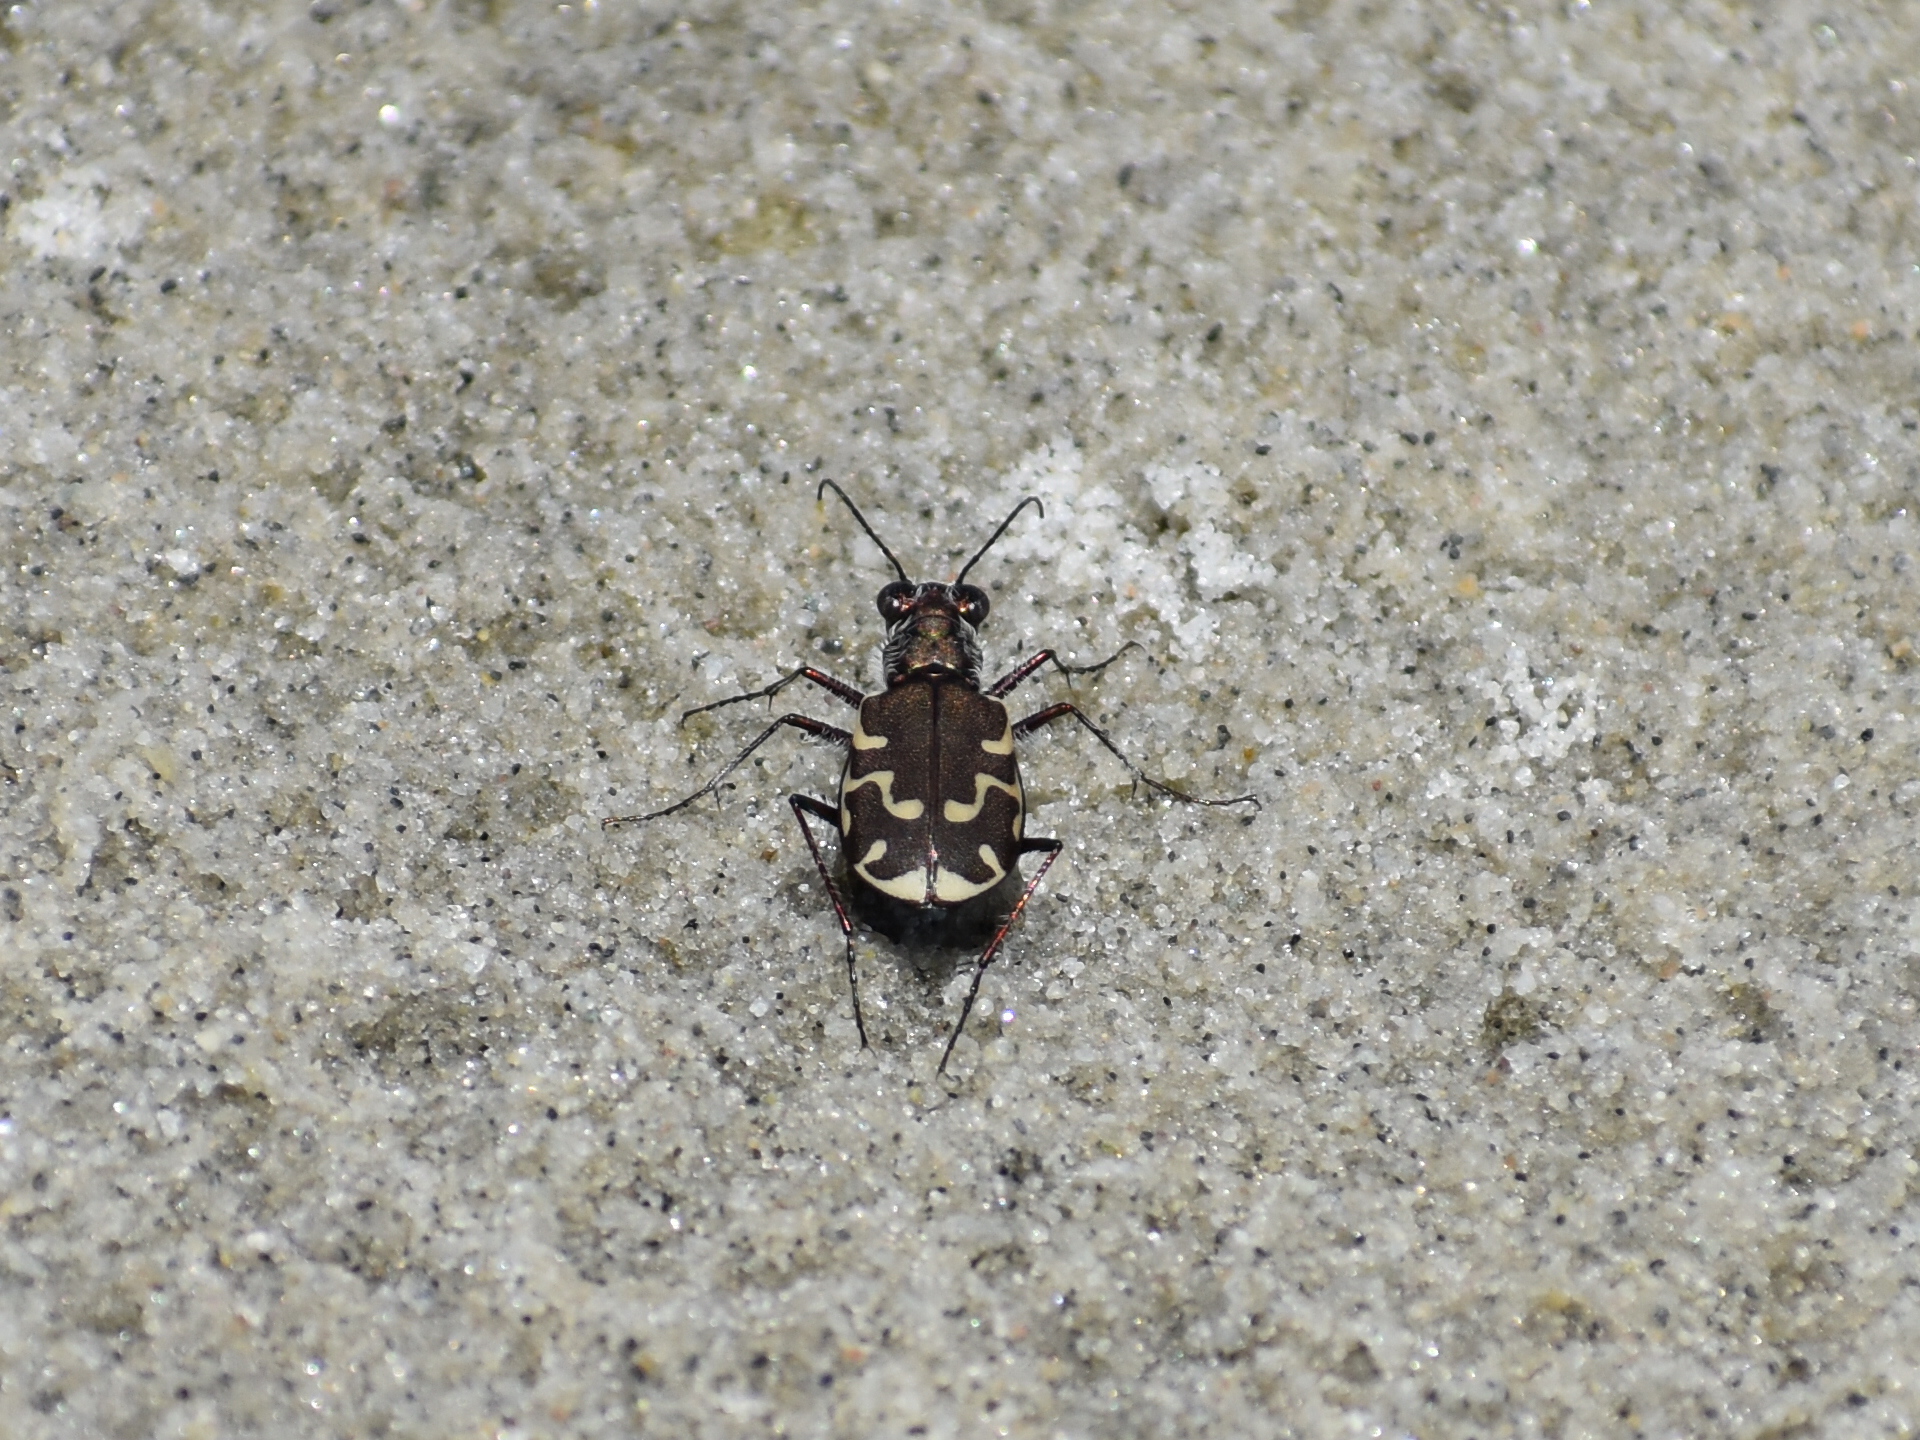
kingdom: Animalia
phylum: Arthropoda
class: Insecta
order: Coleoptera
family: Carabidae
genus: Cicindela
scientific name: Cicindela repanda
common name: Bronzed tiger beetle
